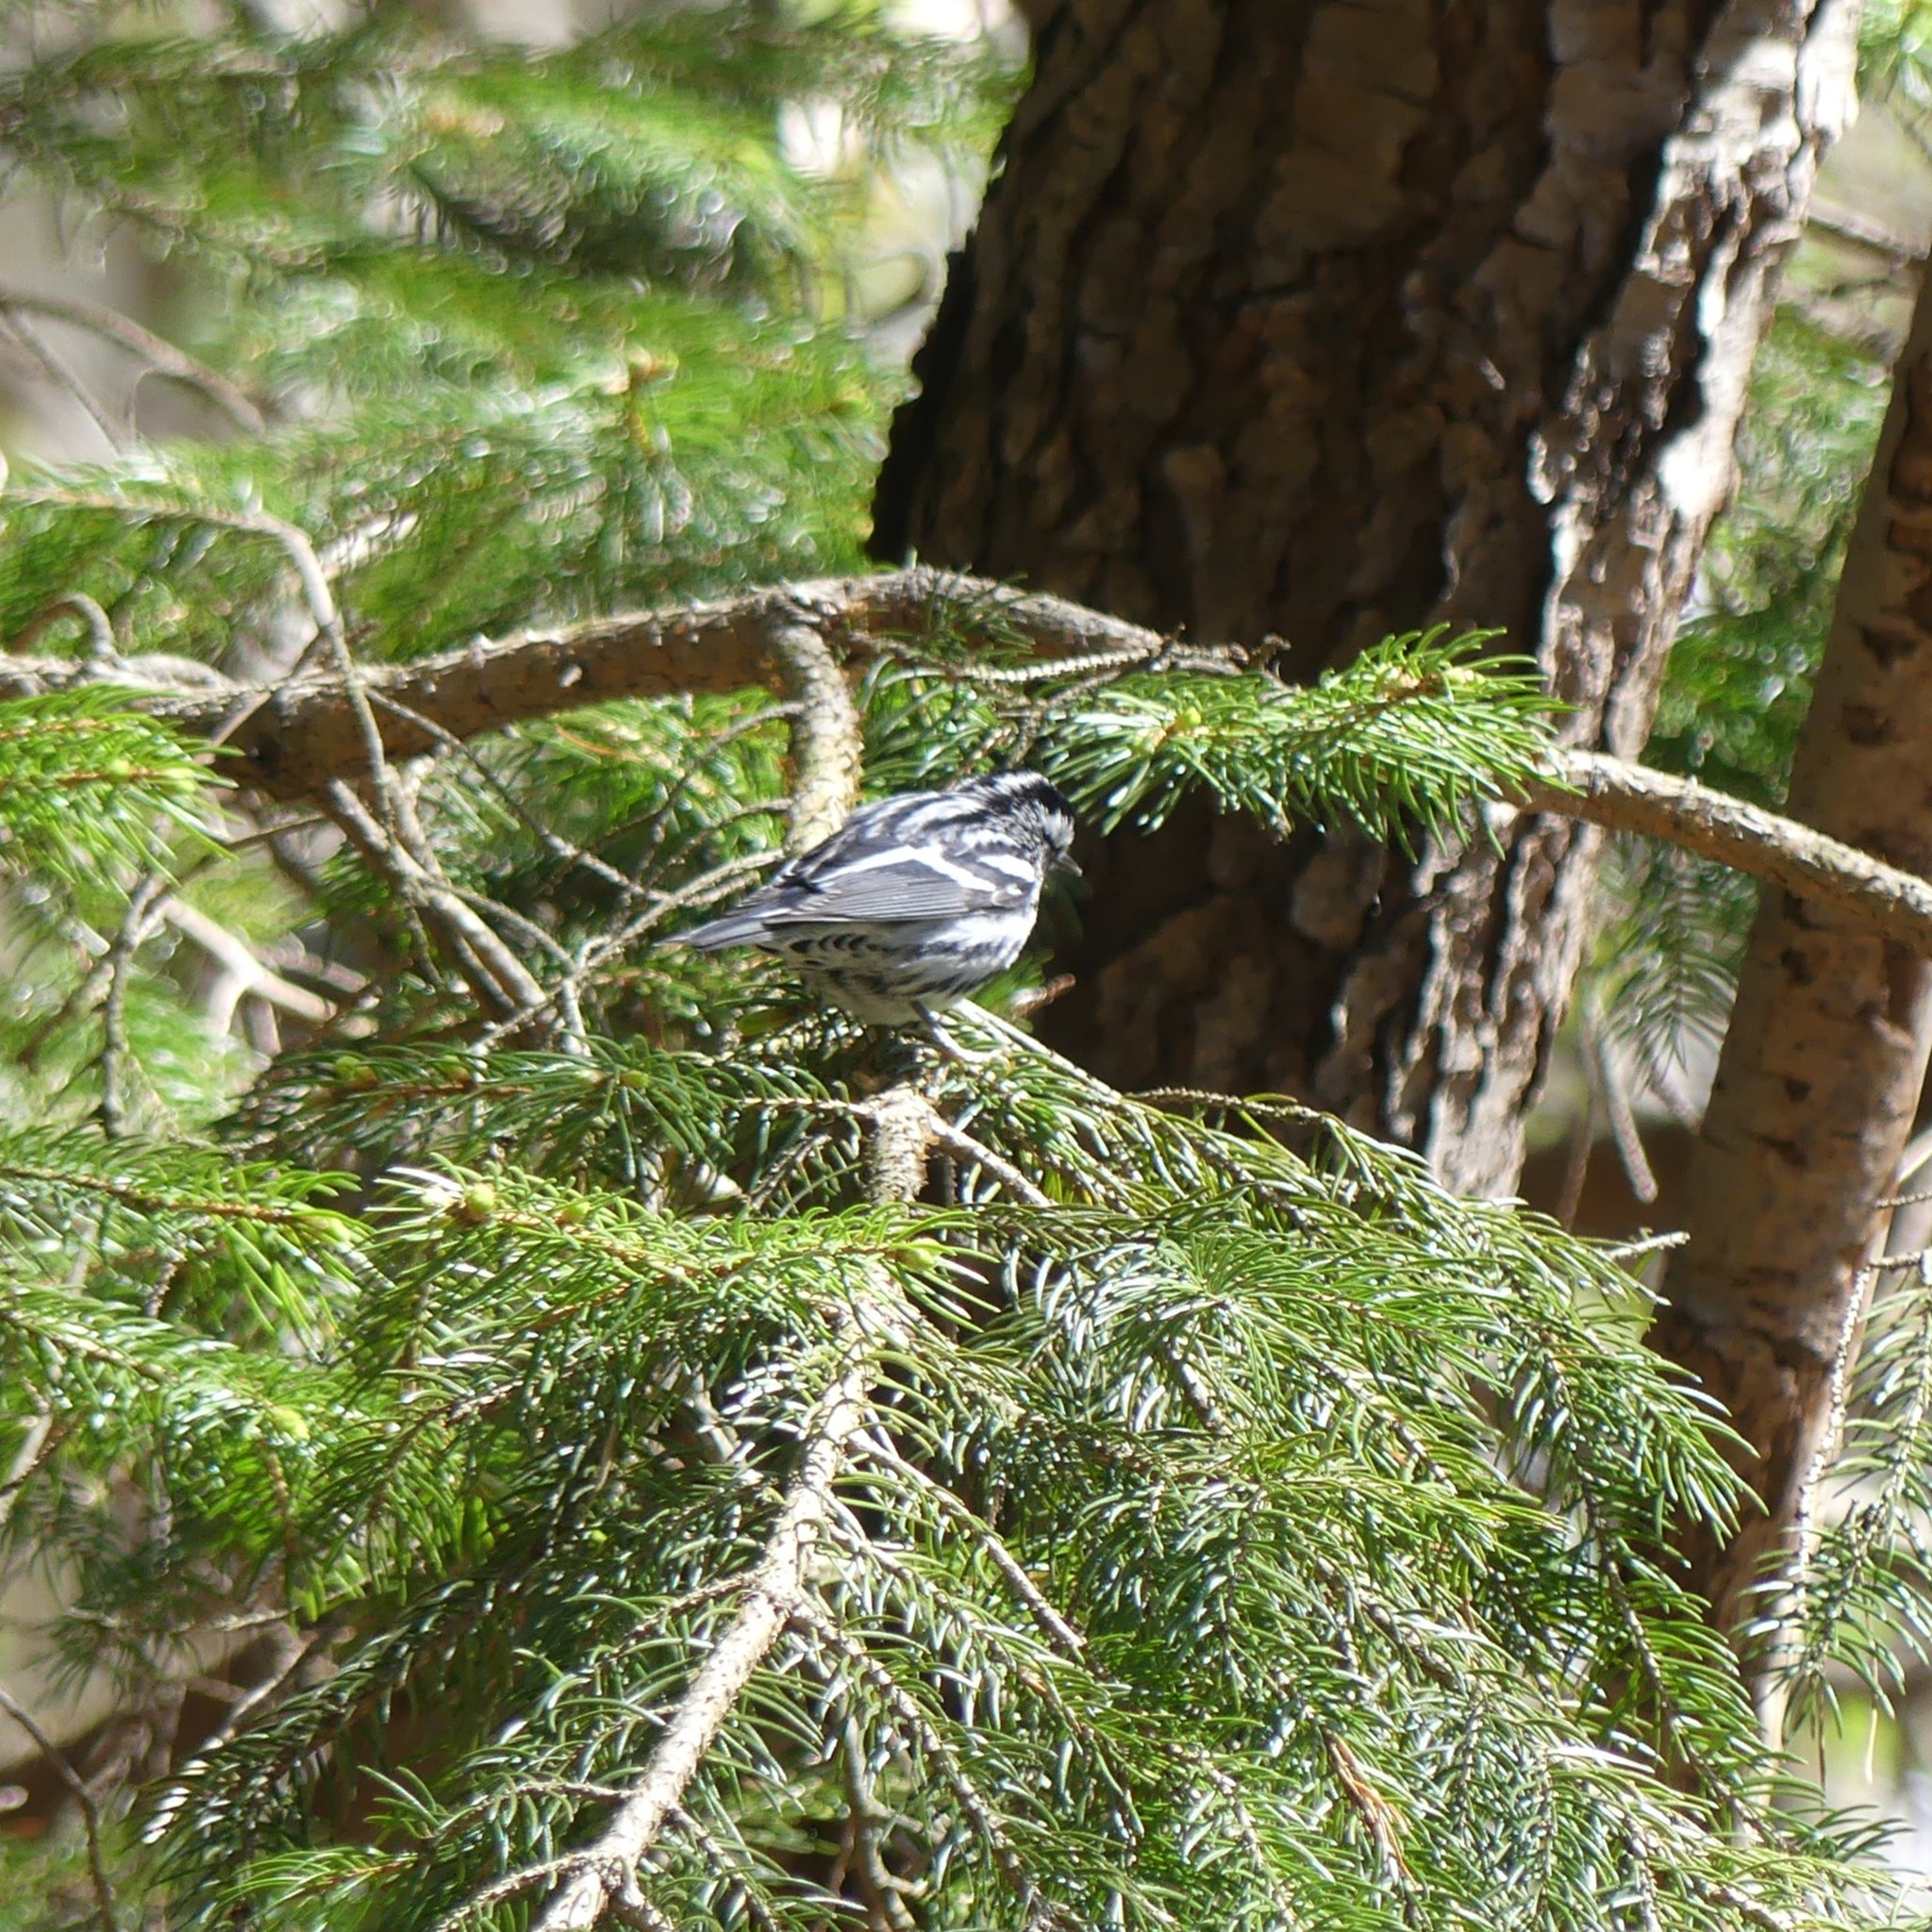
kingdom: Animalia
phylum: Chordata
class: Aves
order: Passeriformes
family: Parulidae
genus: Mniotilta
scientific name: Mniotilta varia
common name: Black-and-white warbler
